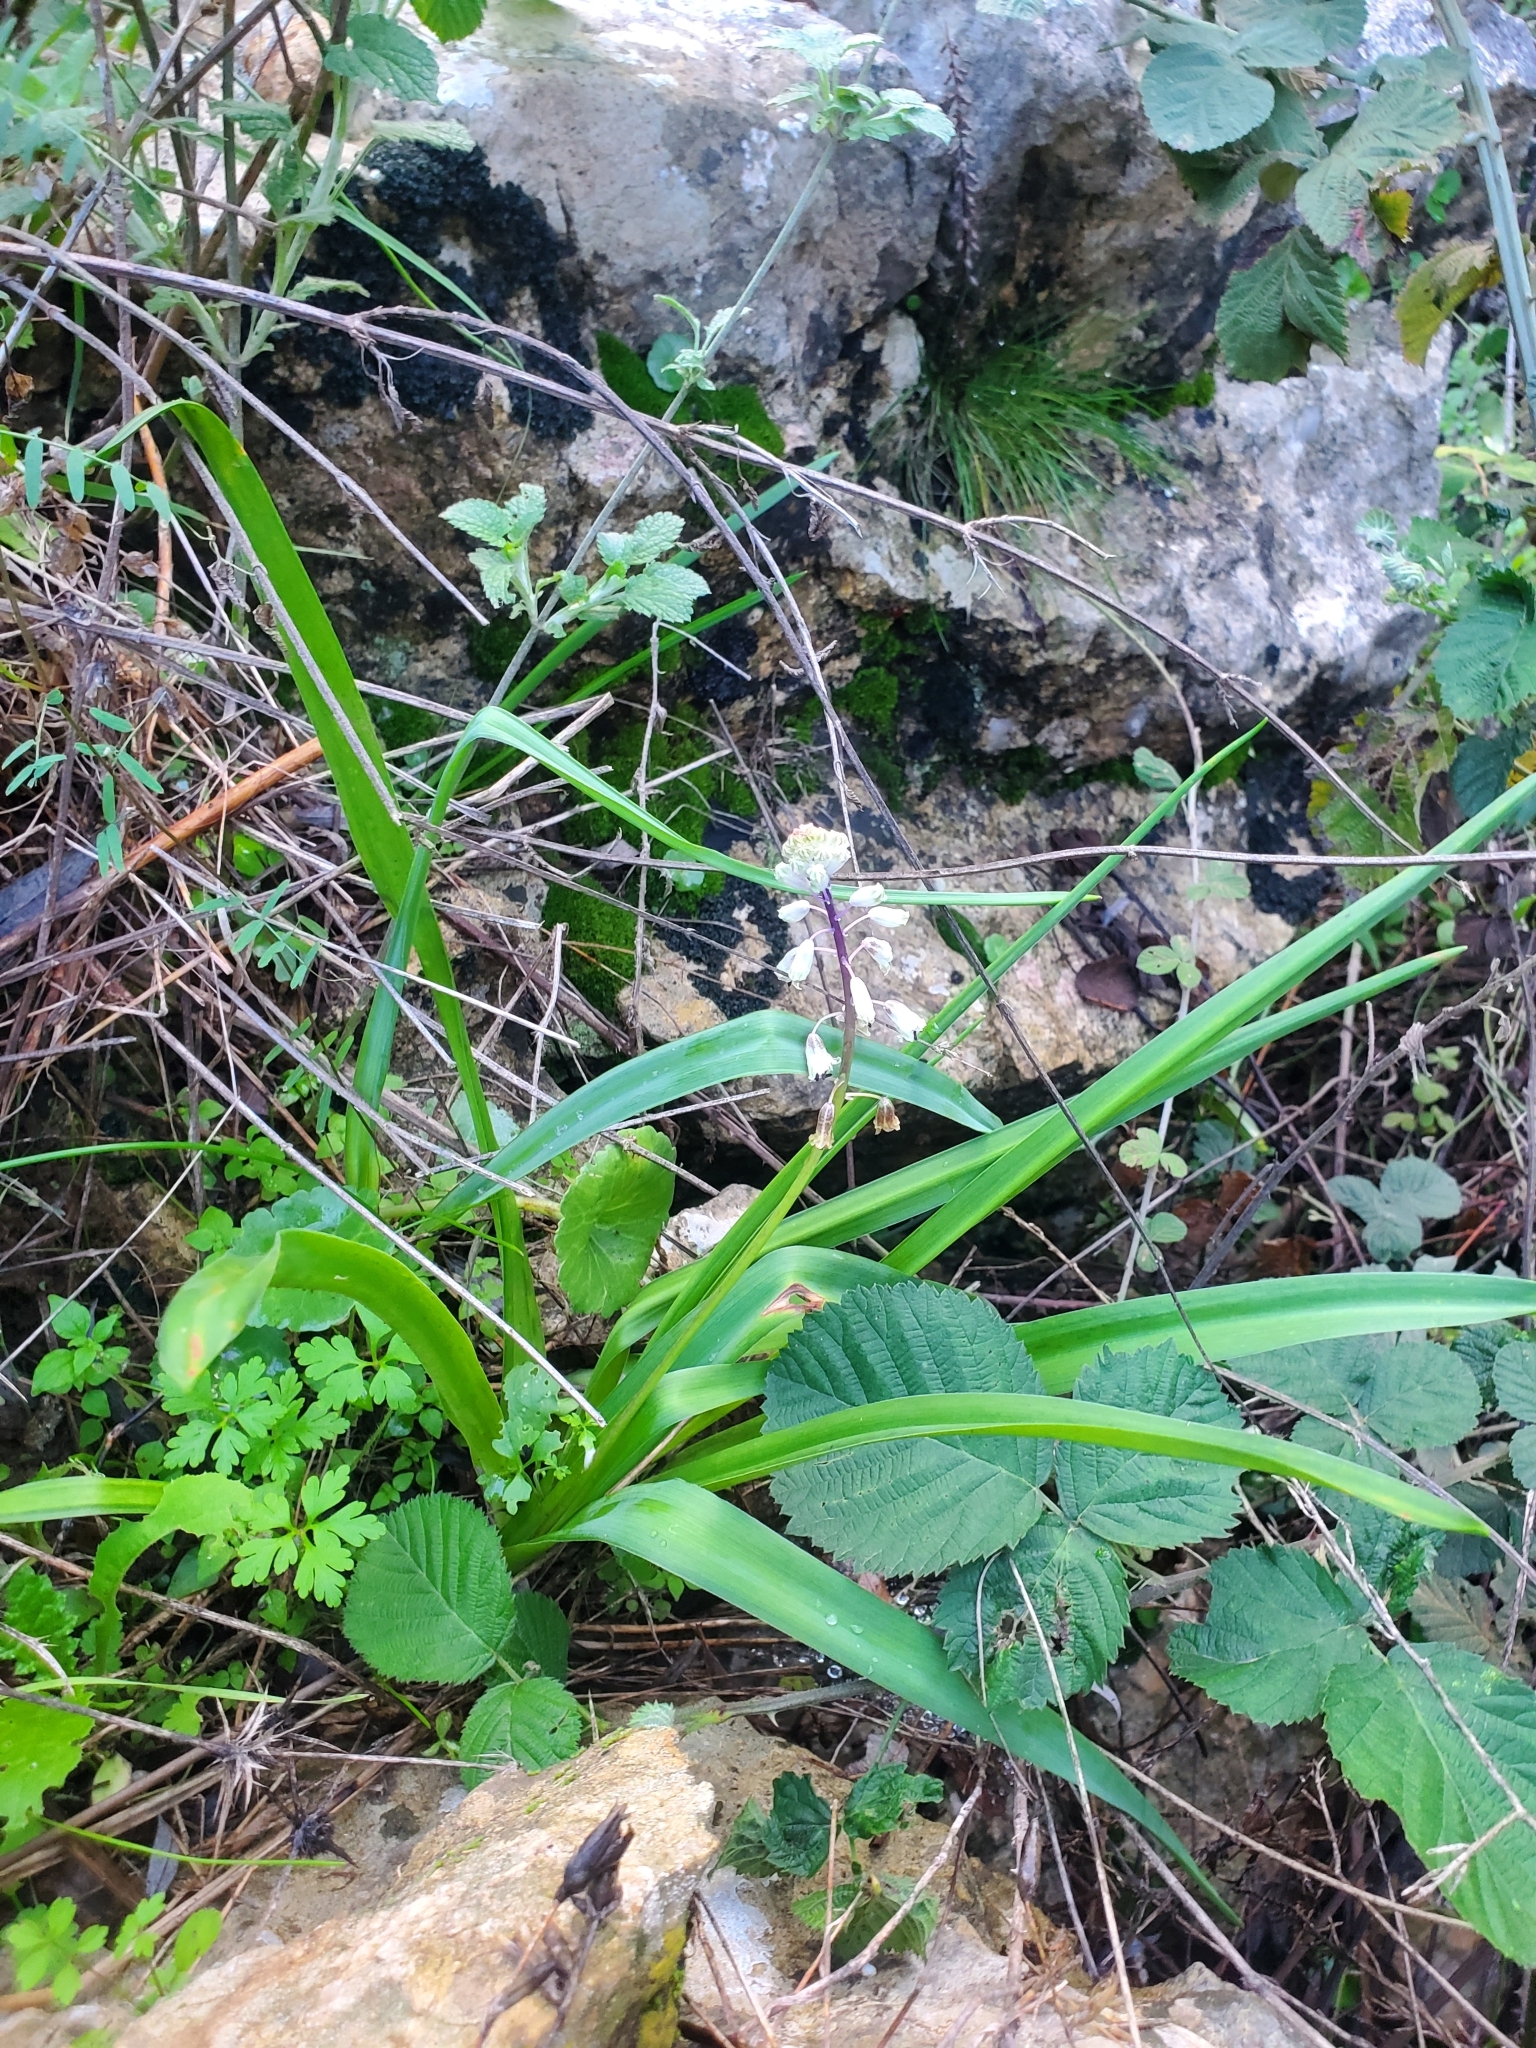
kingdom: Plantae
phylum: Tracheophyta
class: Liliopsida
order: Asparagales
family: Asparagaceae
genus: Bellevalia
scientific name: Bellevalia flexuosa
